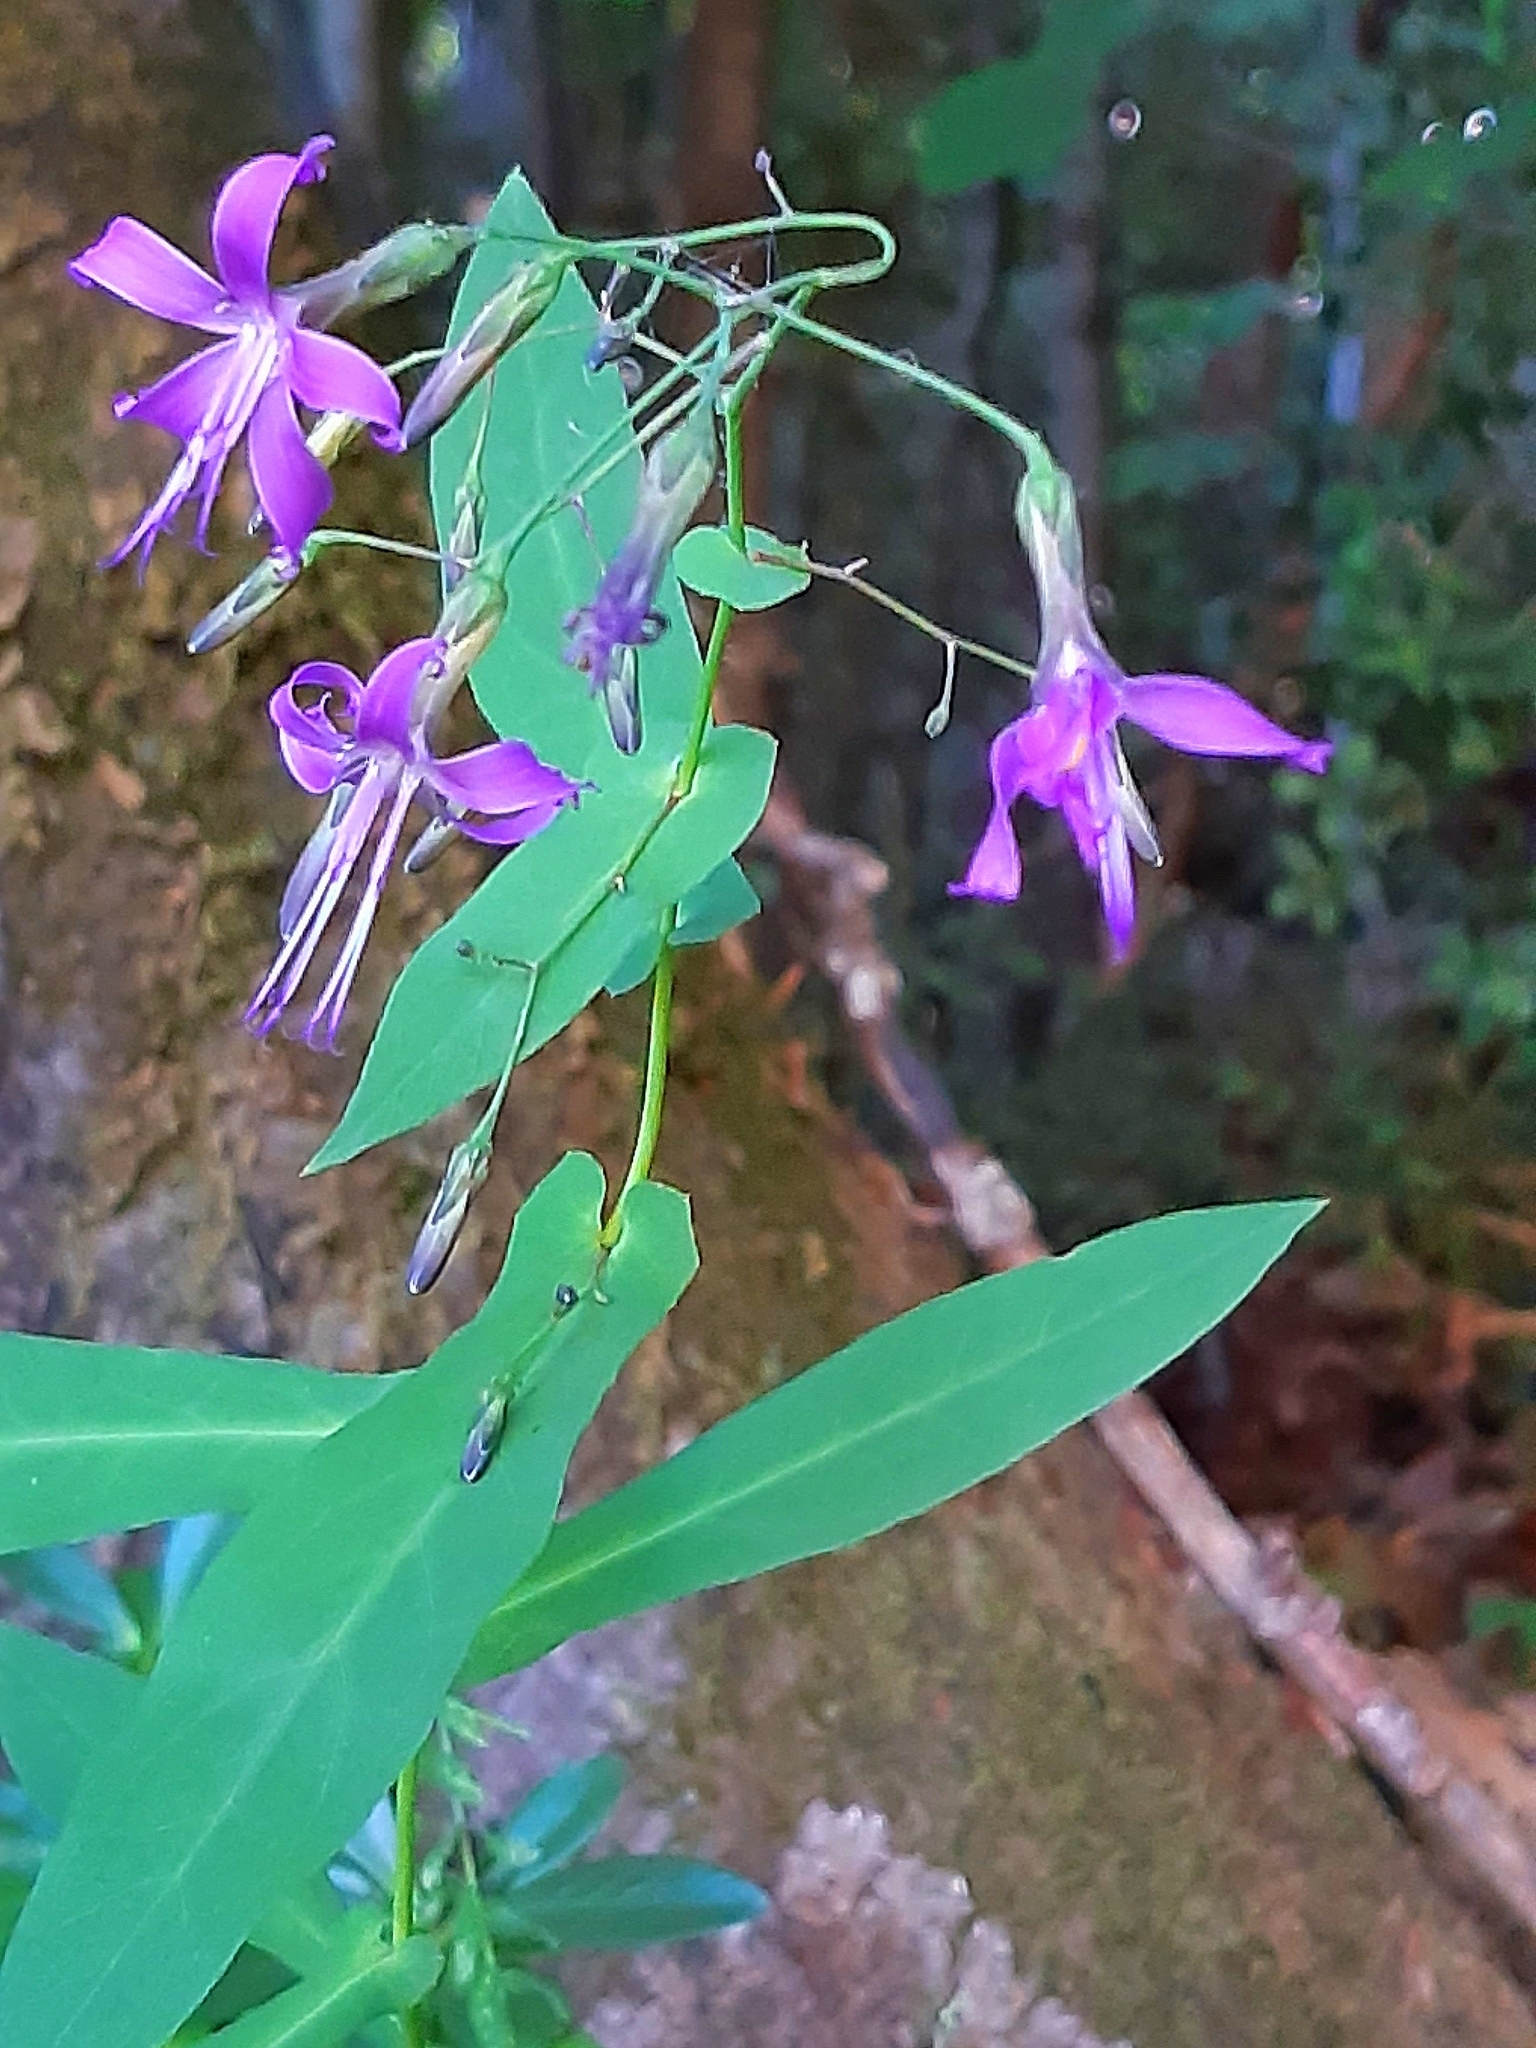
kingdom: Plantae
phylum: Tracheophyta
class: Magnoliopsida
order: Asterales
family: Asteraceae
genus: Prenanthes
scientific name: Prenanthes purpurea
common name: Purple lettuce
